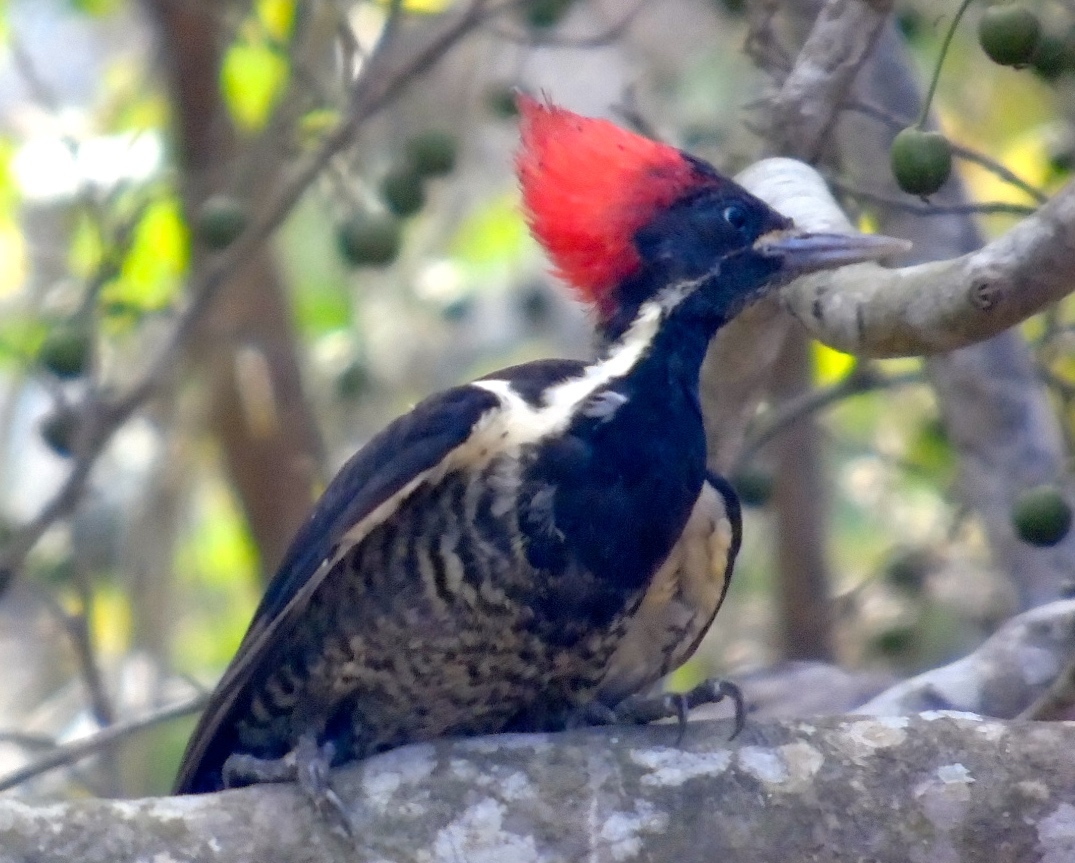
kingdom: Animalia
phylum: Chordata
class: Aves
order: Piciformes
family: Picidae
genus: Dryocopus
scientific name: Dryocopus lineatus
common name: Lineated woodpecker
